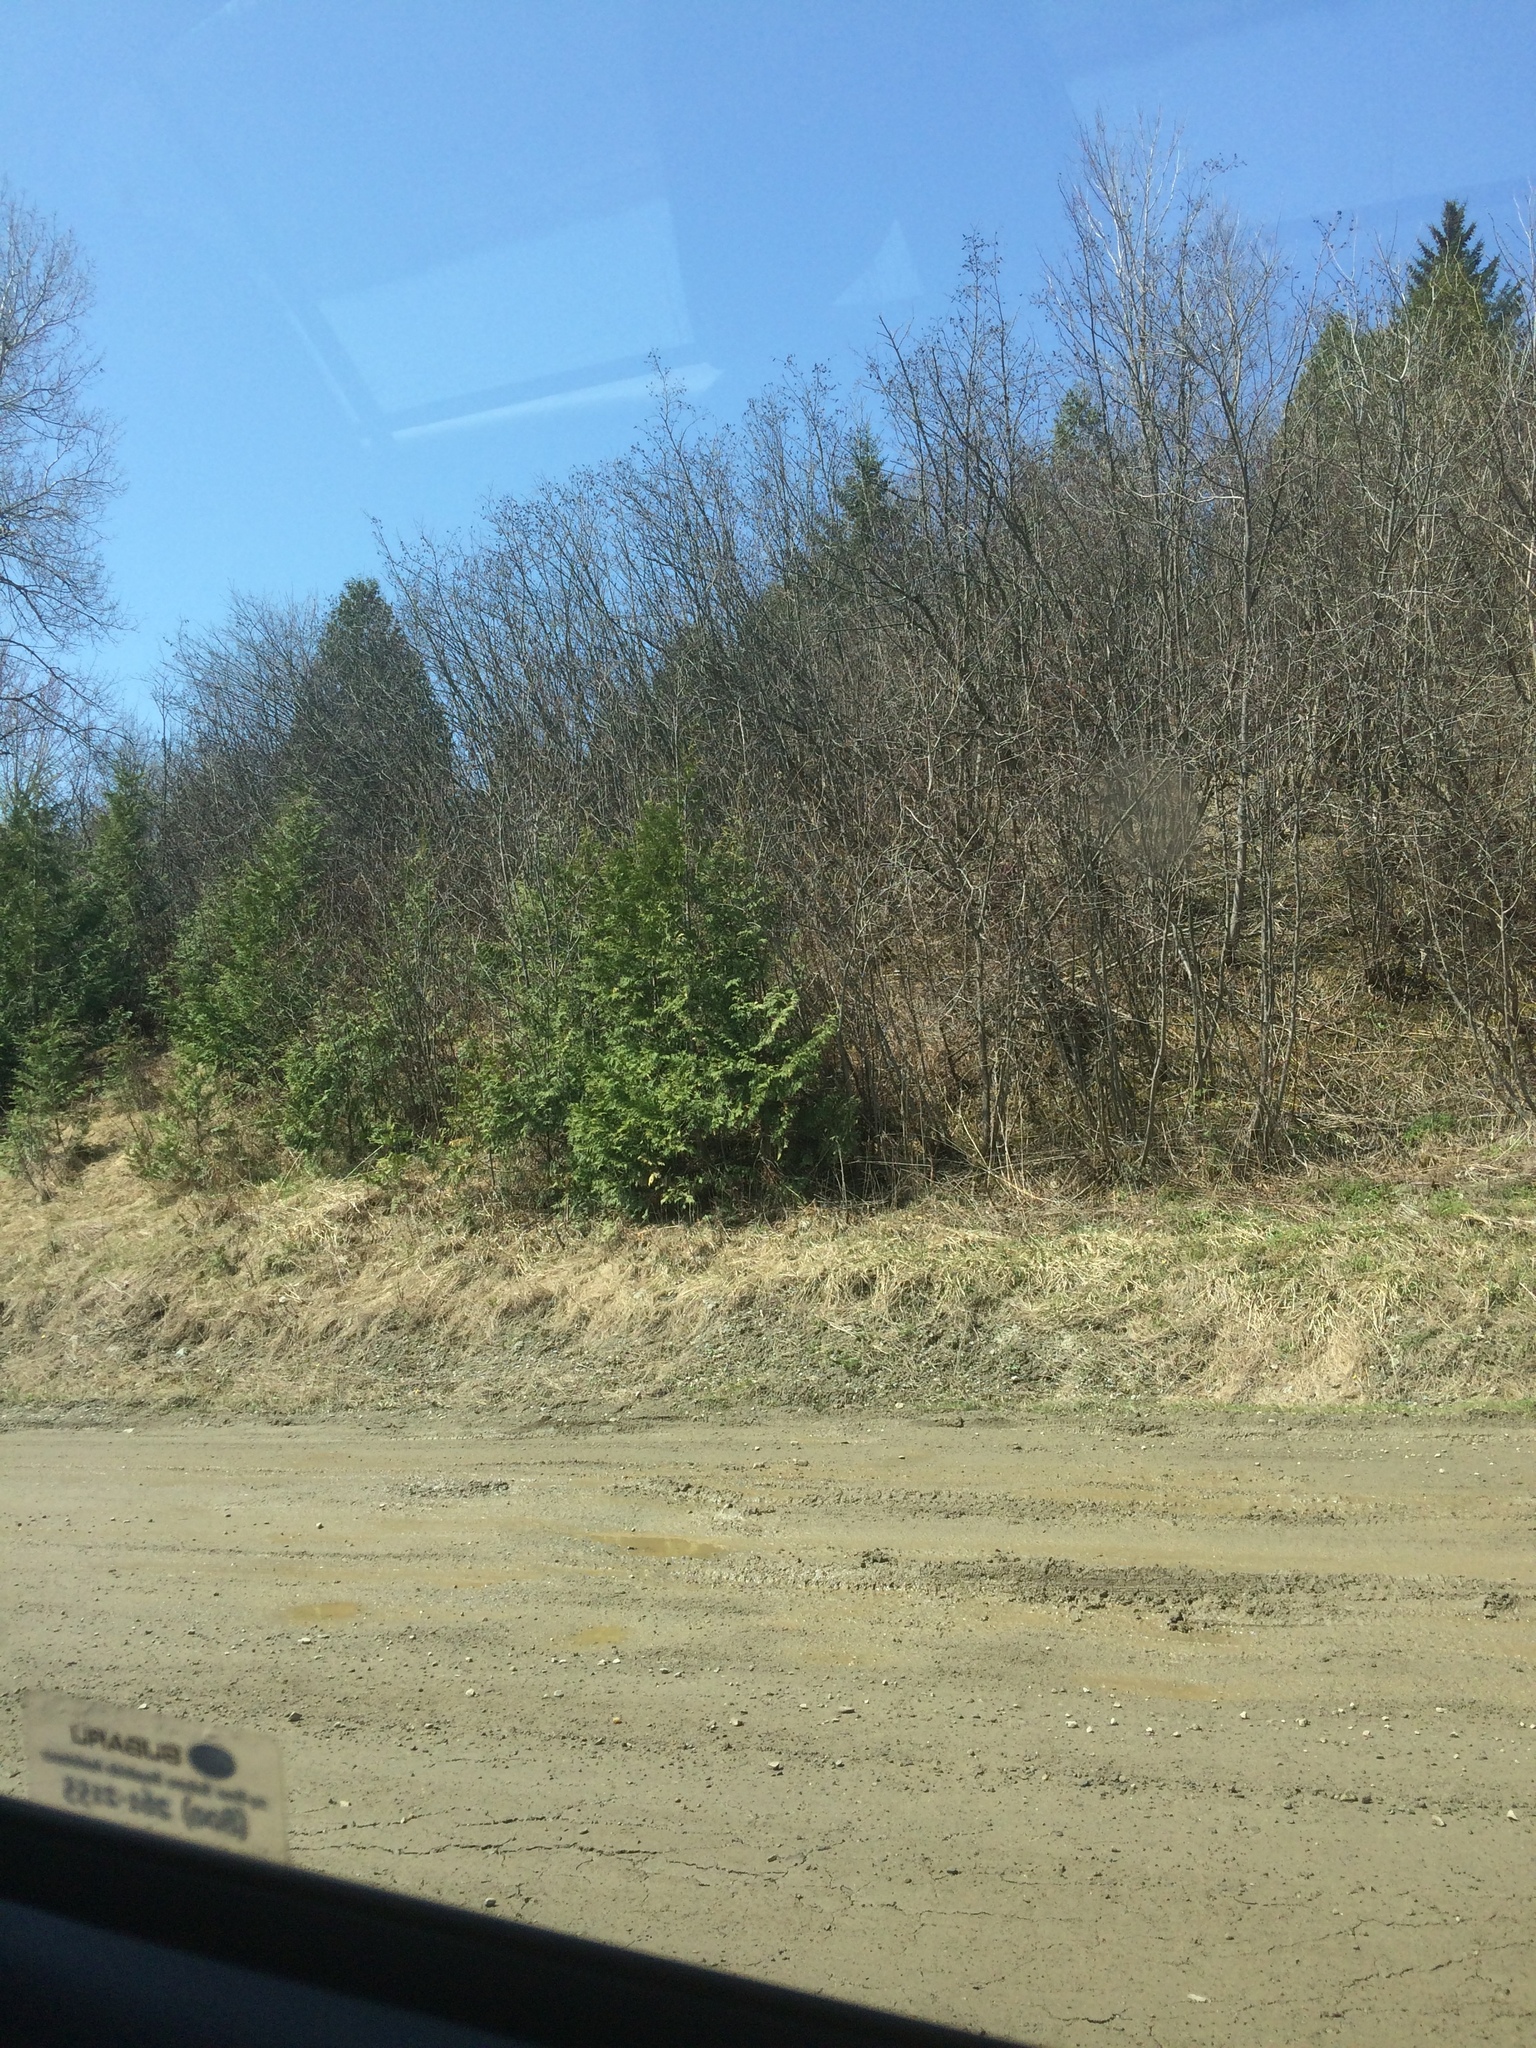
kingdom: Plantae
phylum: Tracheophyta
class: Pinopsida
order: Pinales
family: Cupressaceae
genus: Thuja
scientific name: Thuja occidentalis
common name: Northern white-cedar
